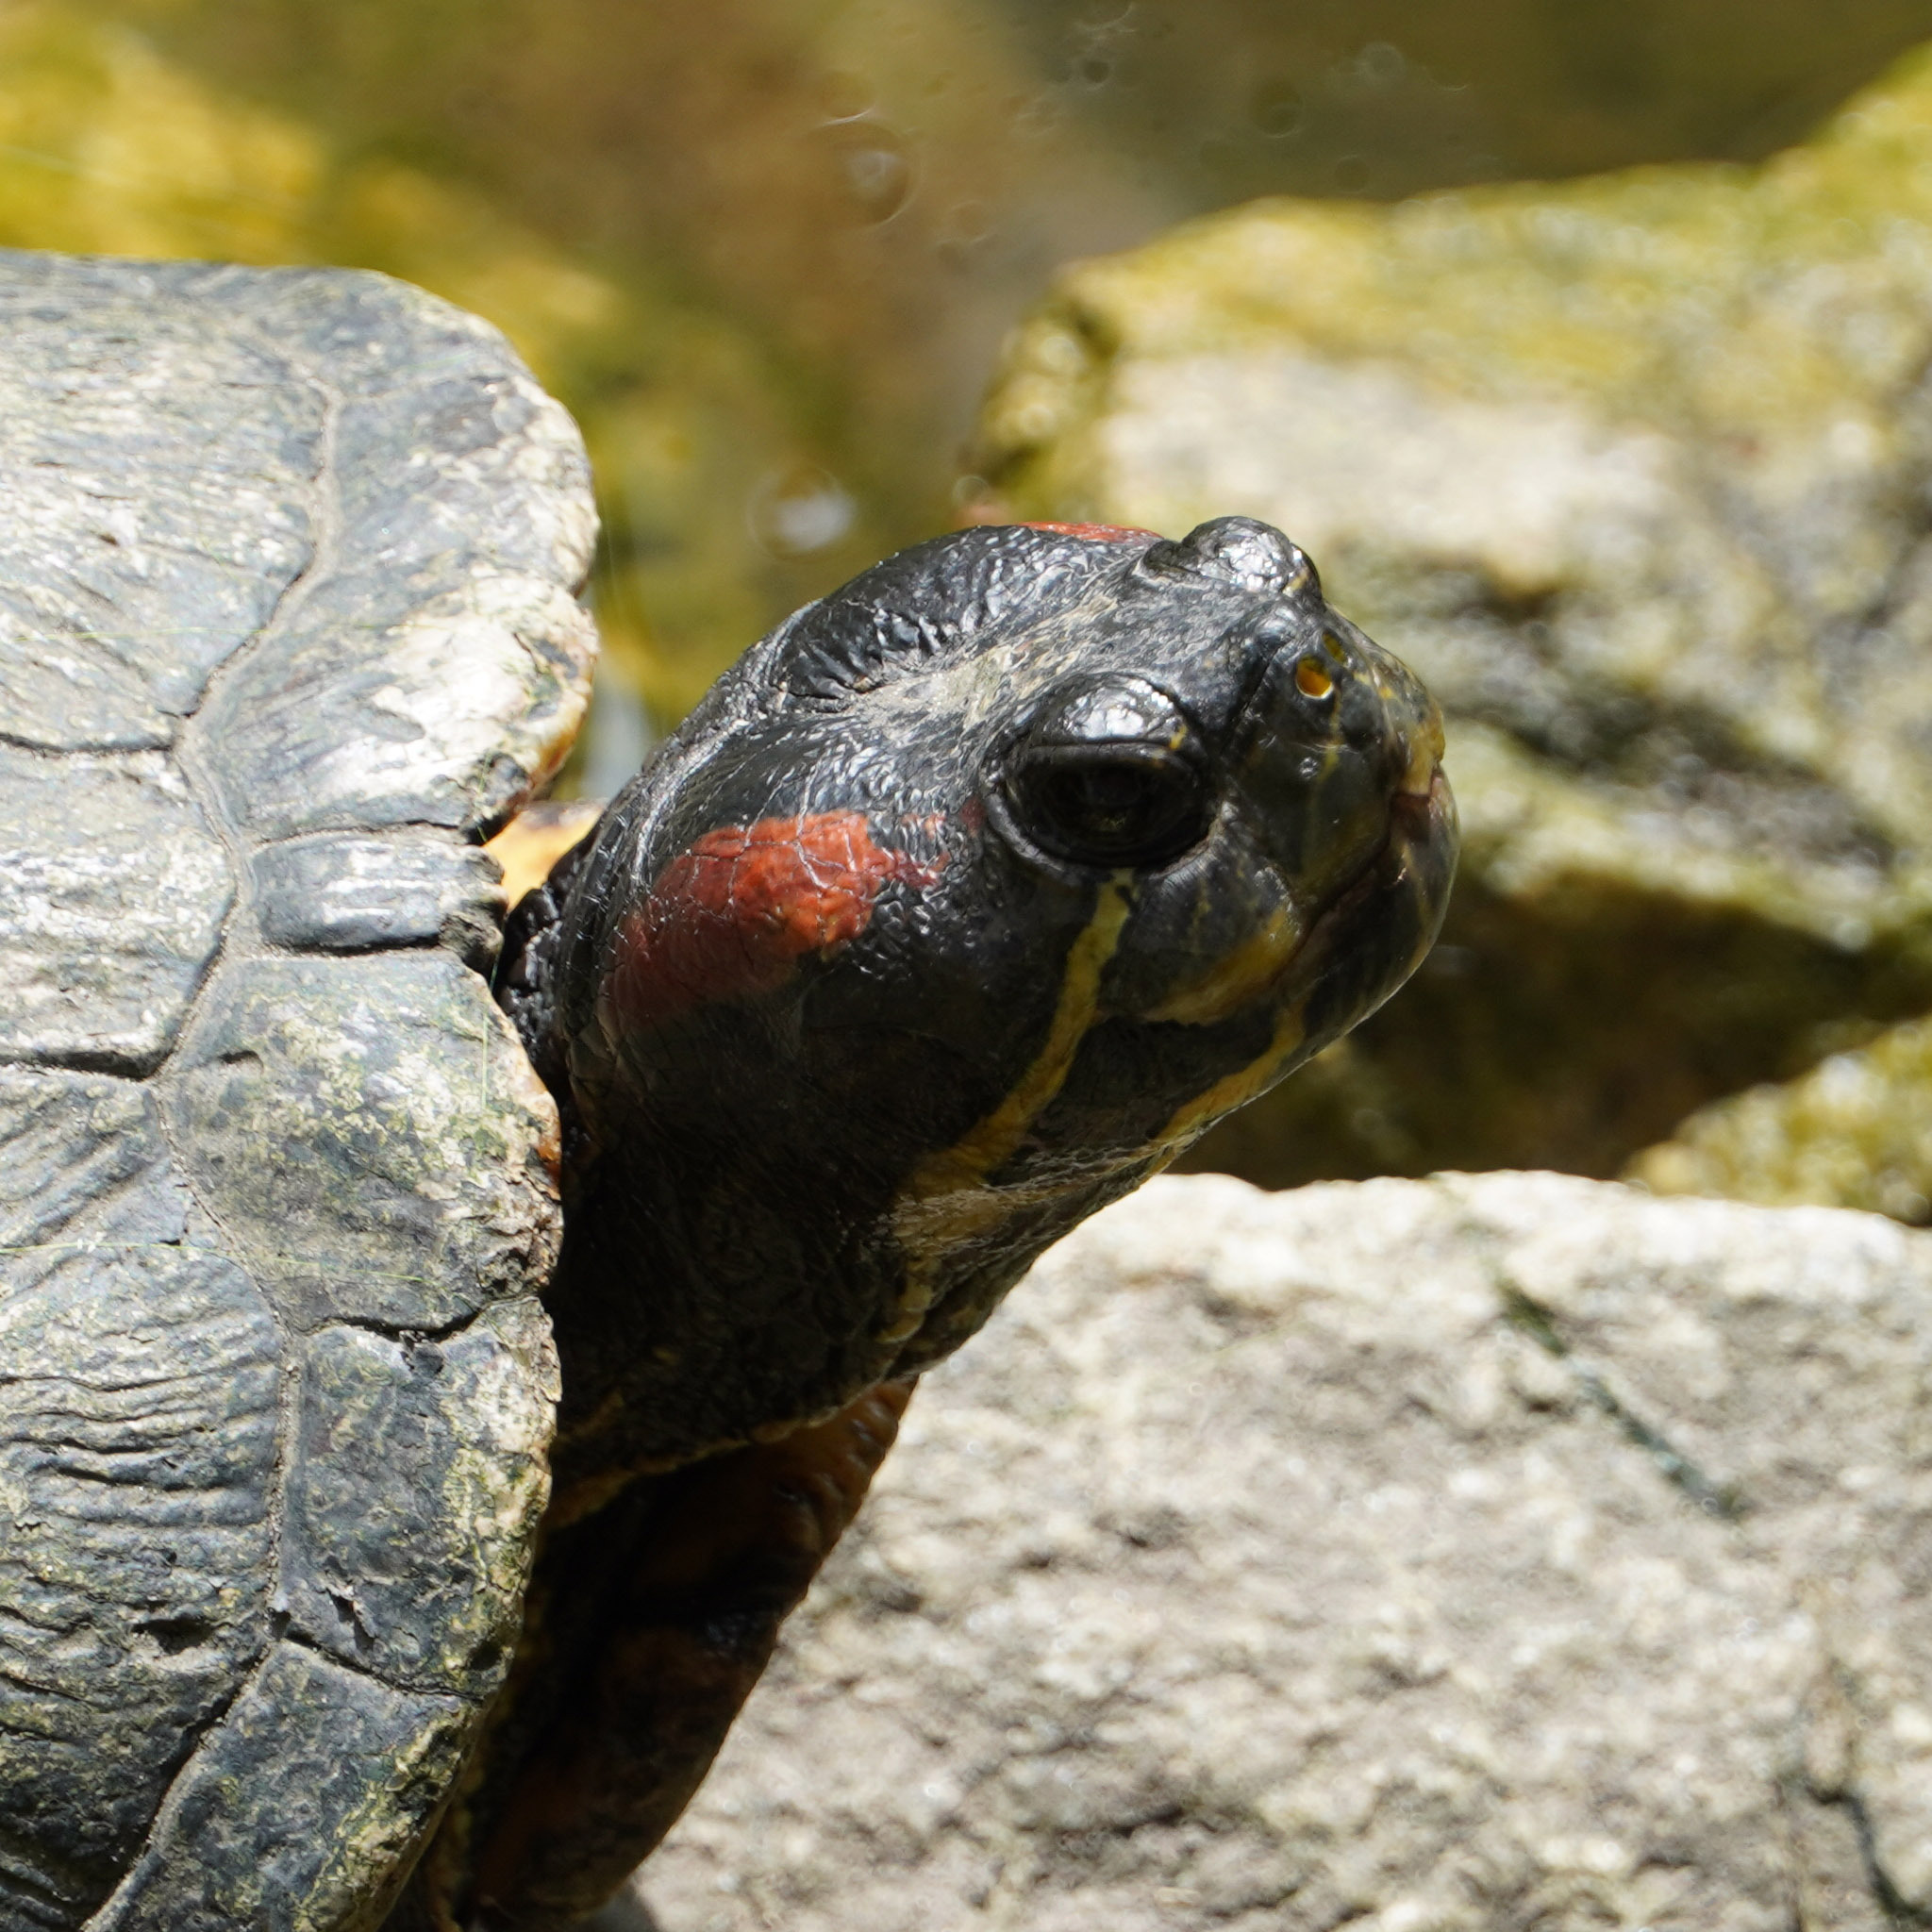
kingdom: Animalia
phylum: Chordata
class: Testudines
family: Emydidae
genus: Trachemys
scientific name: Trachemys scripta
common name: Slider
